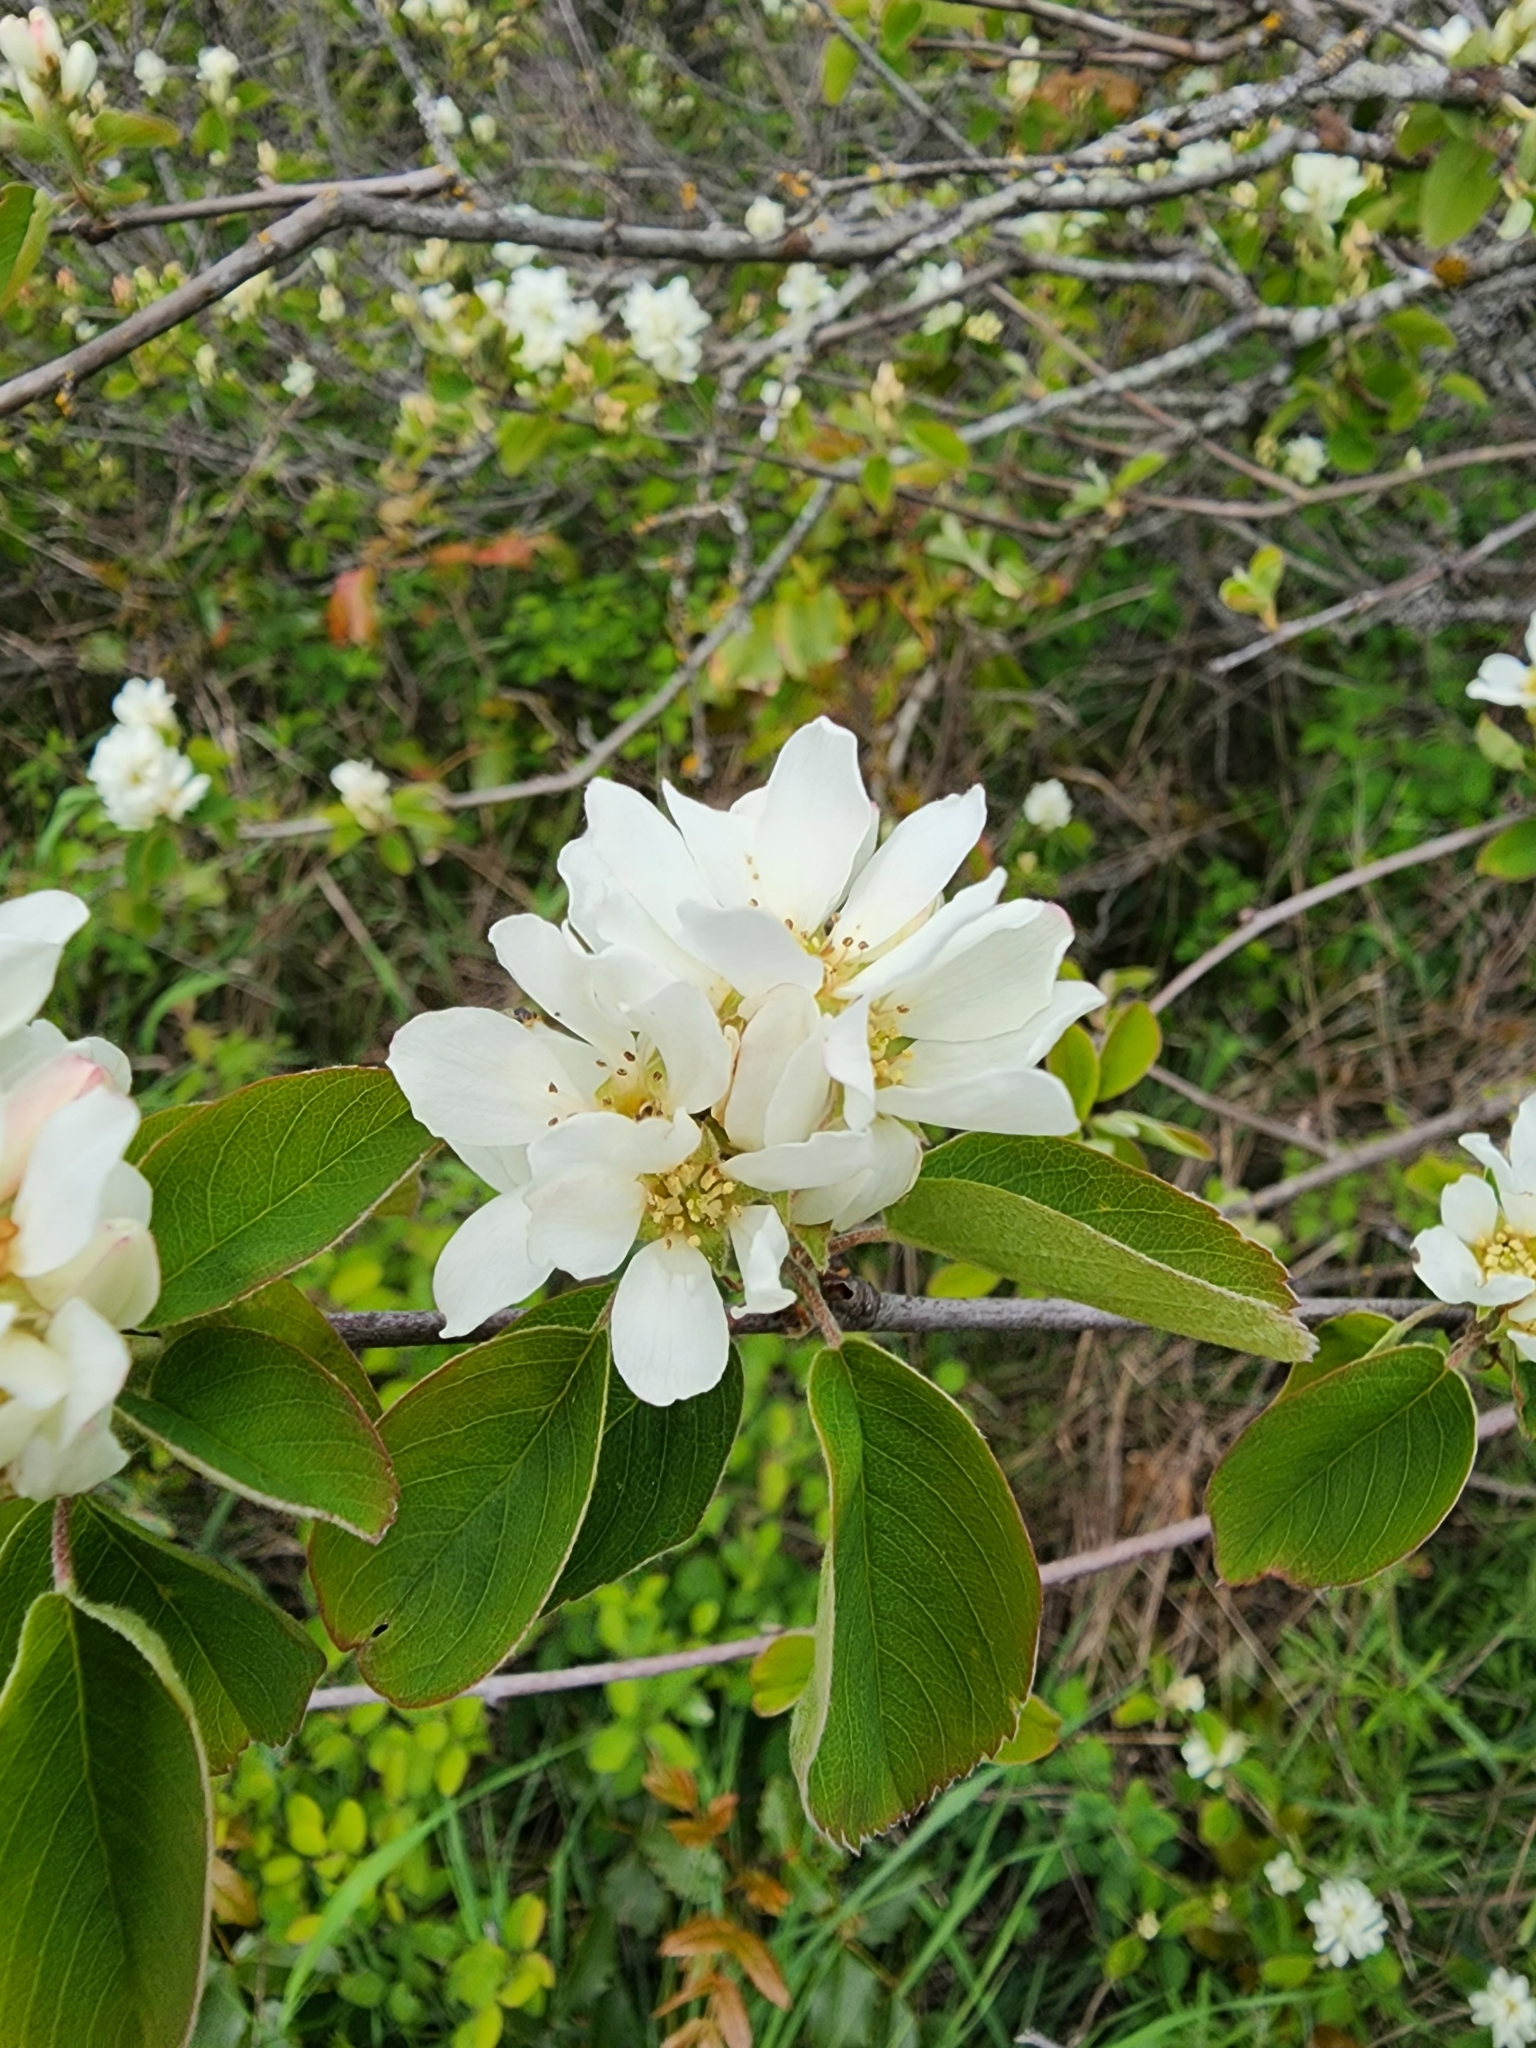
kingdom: Plantae
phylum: Tracheophyta
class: Magnoliopsida
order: Rosales
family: Rosaceae
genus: Amelanchier
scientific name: Amelanchier alnifolia
